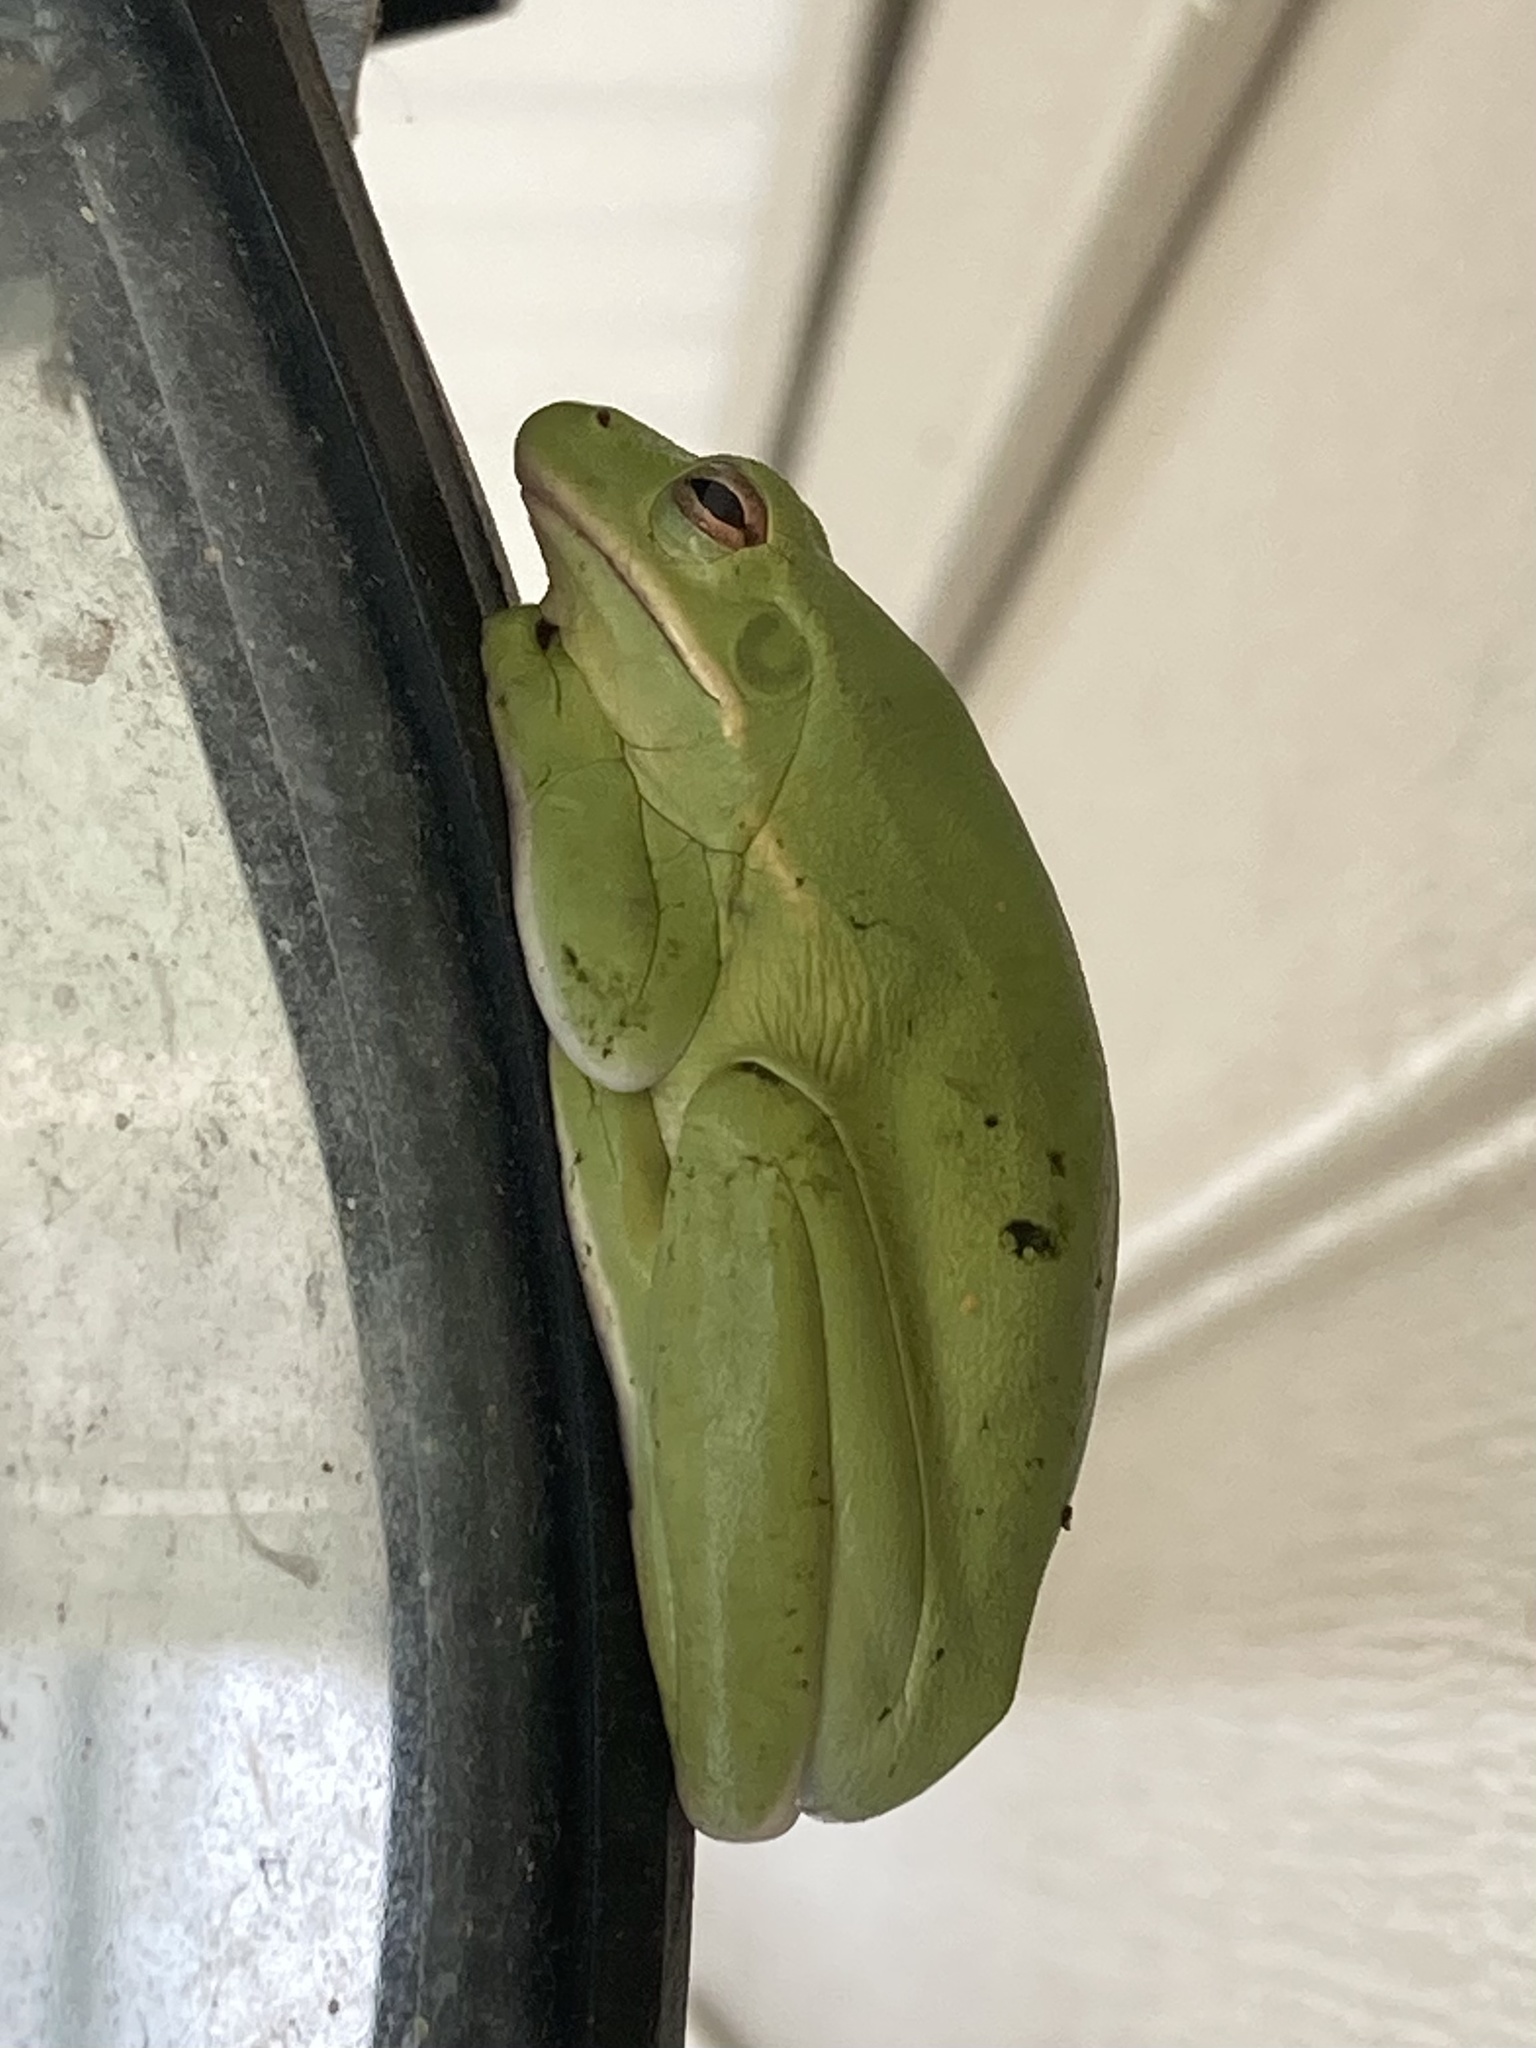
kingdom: Animalia
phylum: Chordata
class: Amphibia
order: Anura
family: Hylidae
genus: Dryophytes
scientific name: Dryophytes cinereus
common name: Green treefrog
